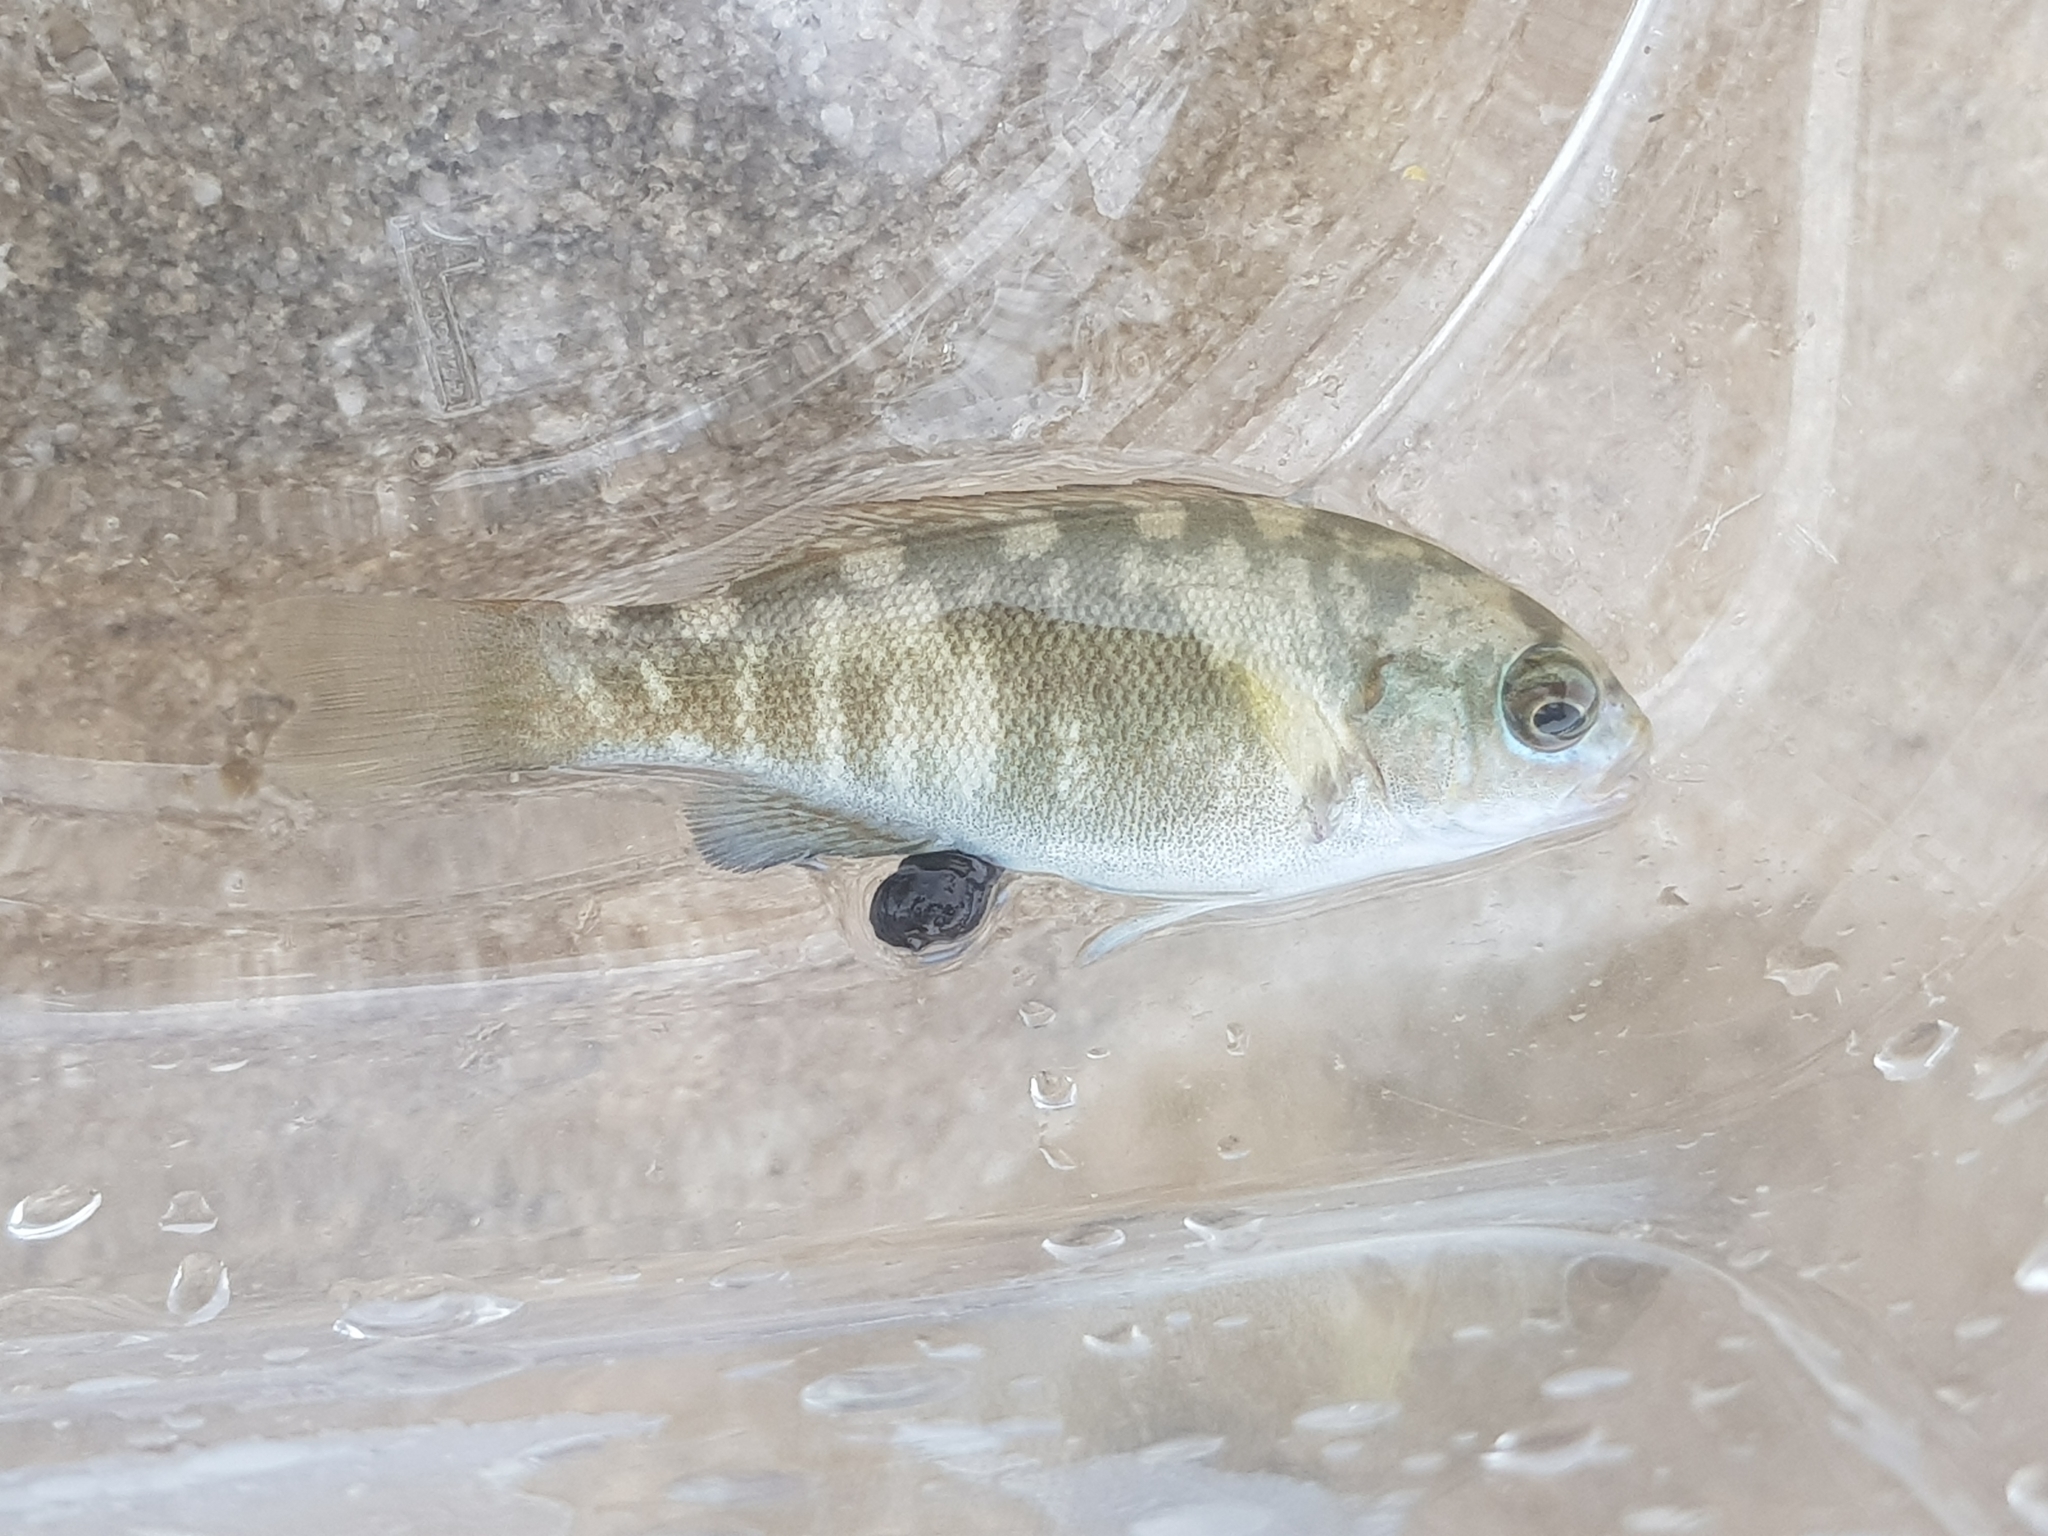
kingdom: Animalia
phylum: Chordata
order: Perciformes
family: Kyphosidae
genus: Girella
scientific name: Girella elevata
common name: Black bream
